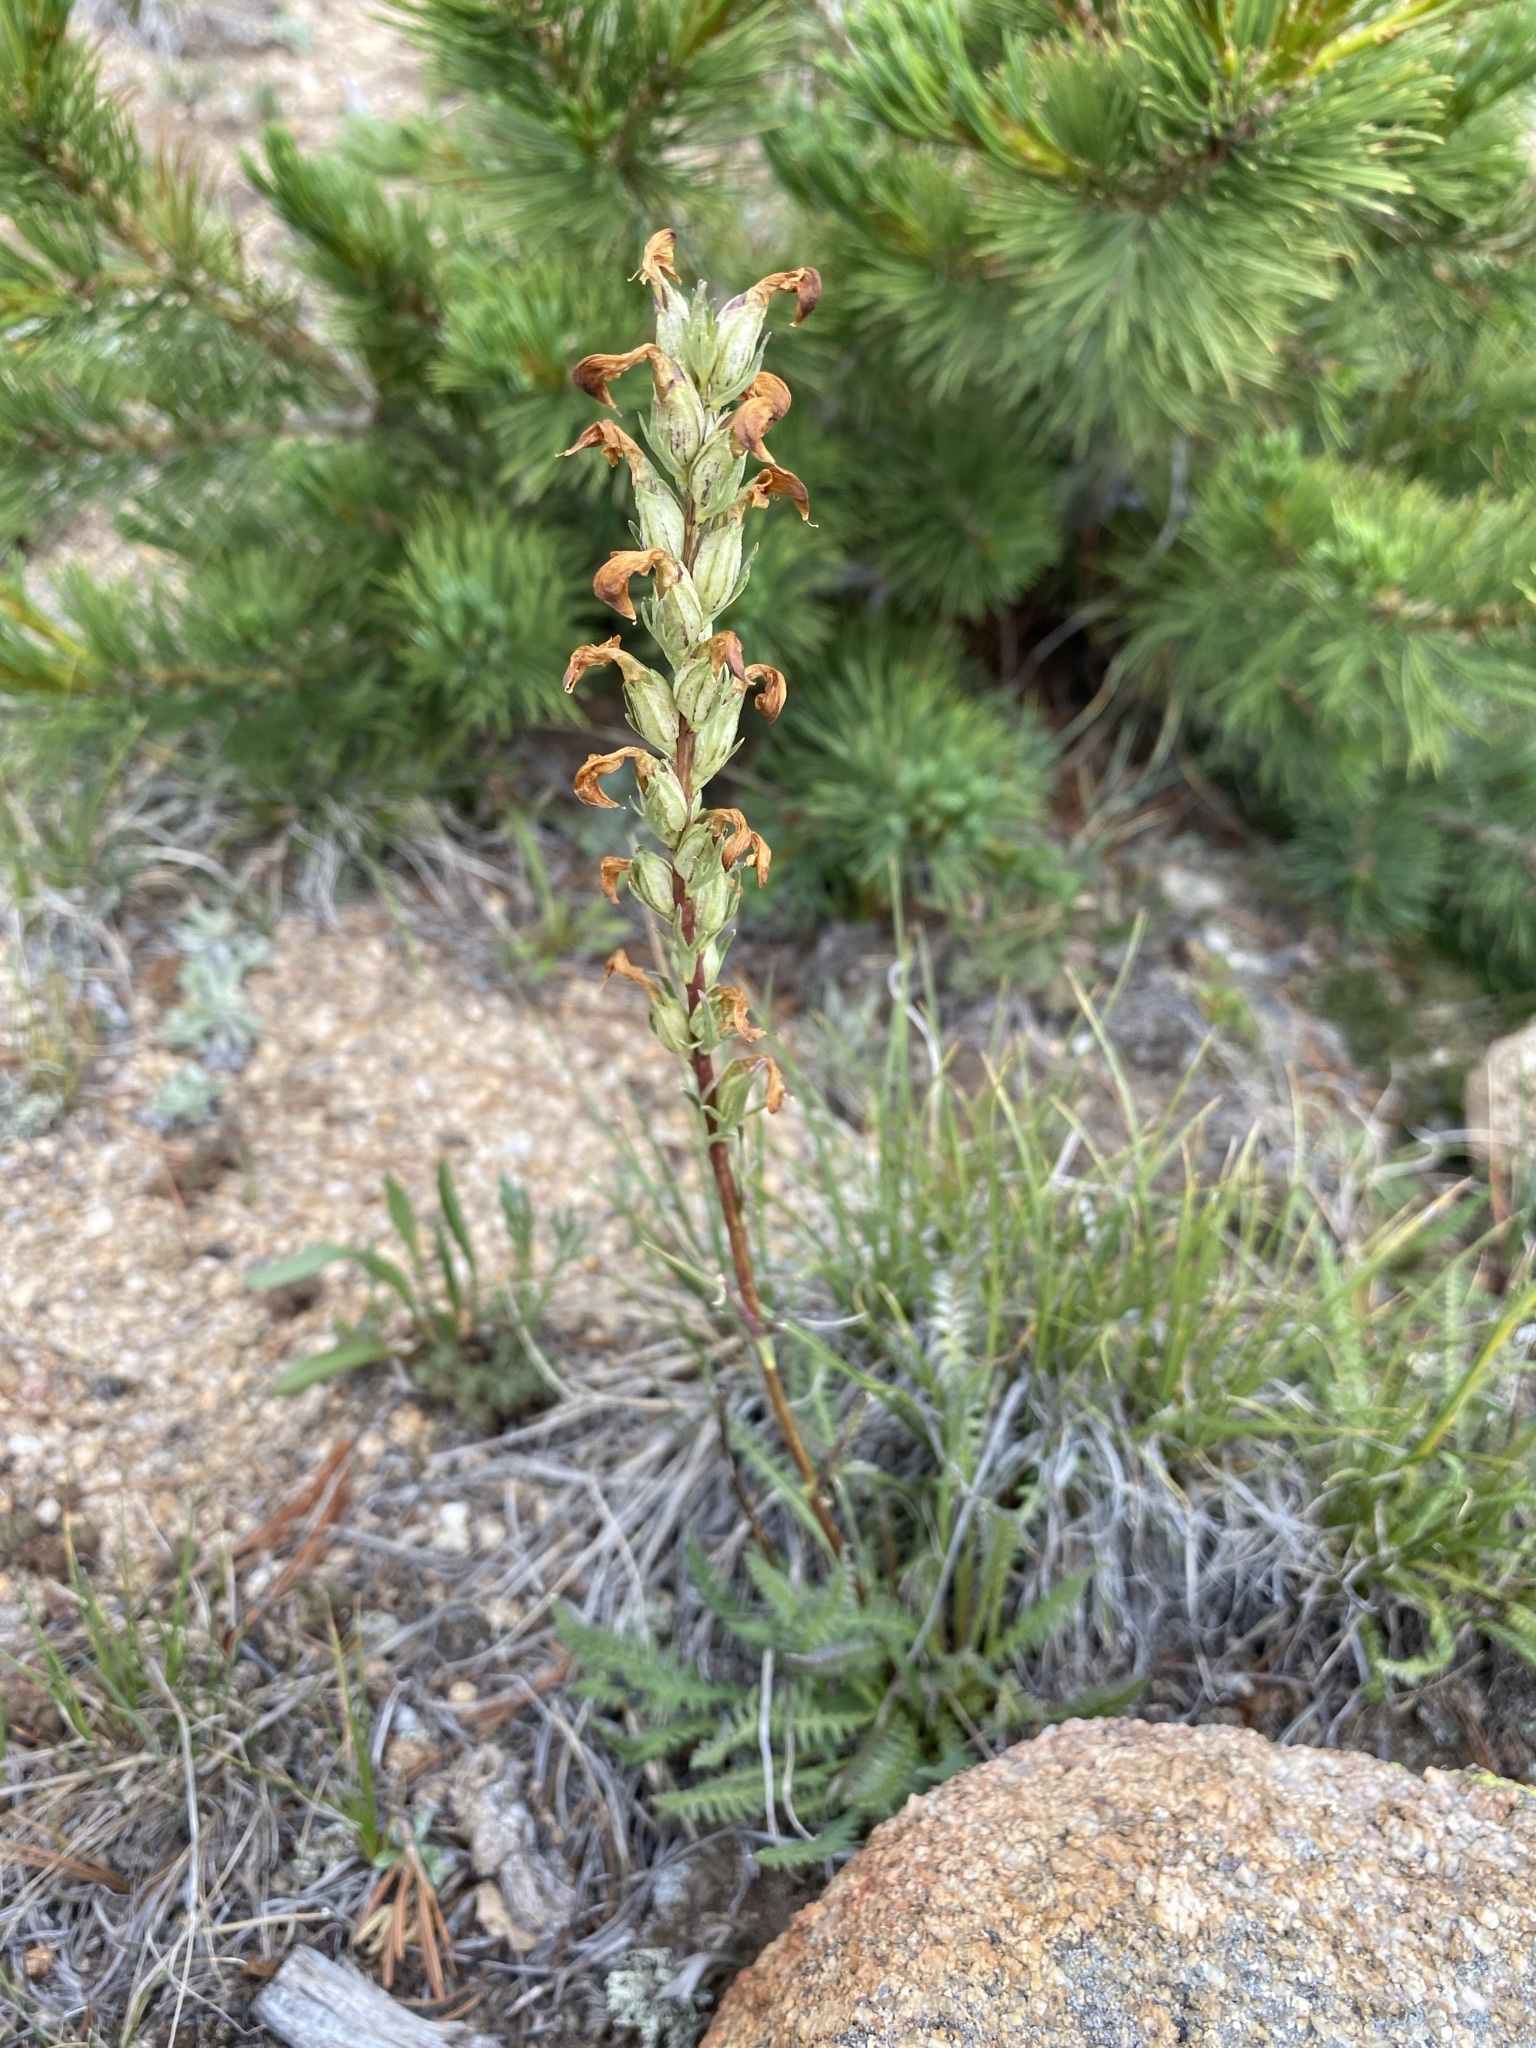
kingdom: Plantae
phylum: Tracheophyta
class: Magnoliopsida
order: Lamiales
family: Orobanchaceae
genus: Pedicularis
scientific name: Pedicularis parryi
